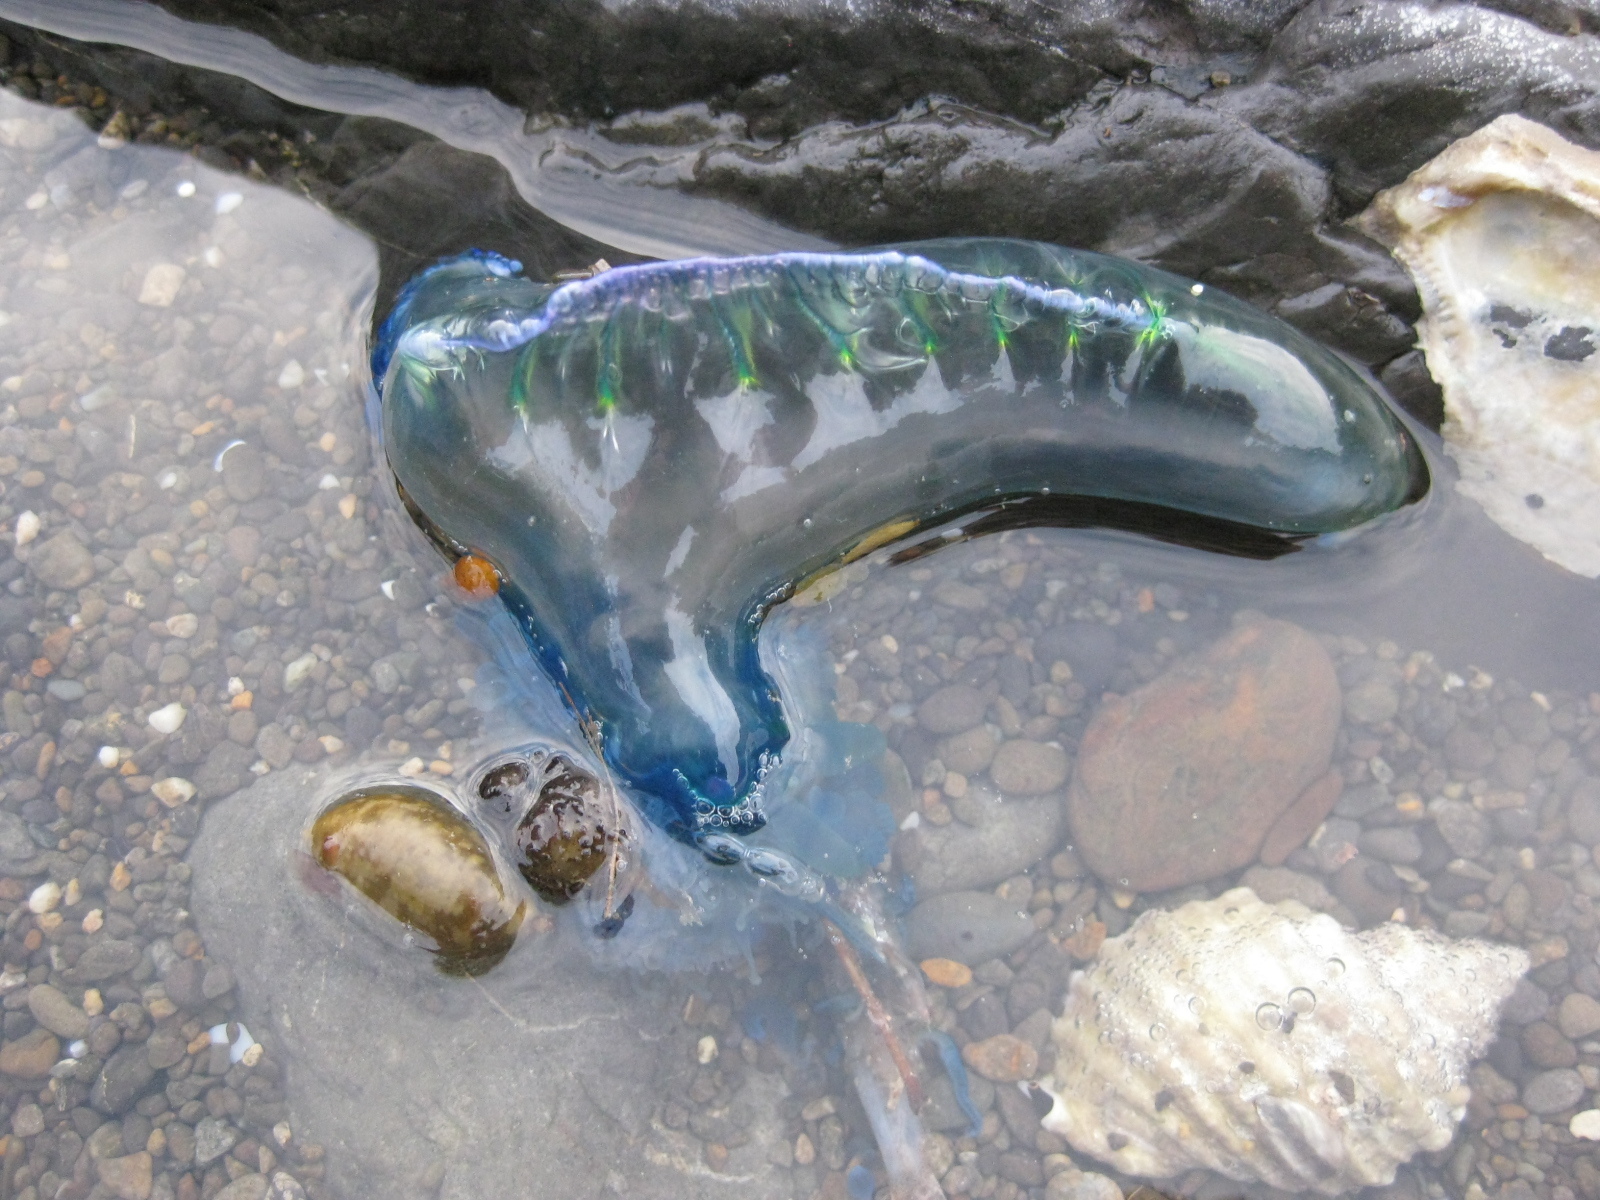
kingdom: Animalia
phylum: Cnidaria
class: Hydrozoa
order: Siphonophorae
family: Physaliidae
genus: Physalia
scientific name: Physalia physalis
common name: Portuguese man-of-war
